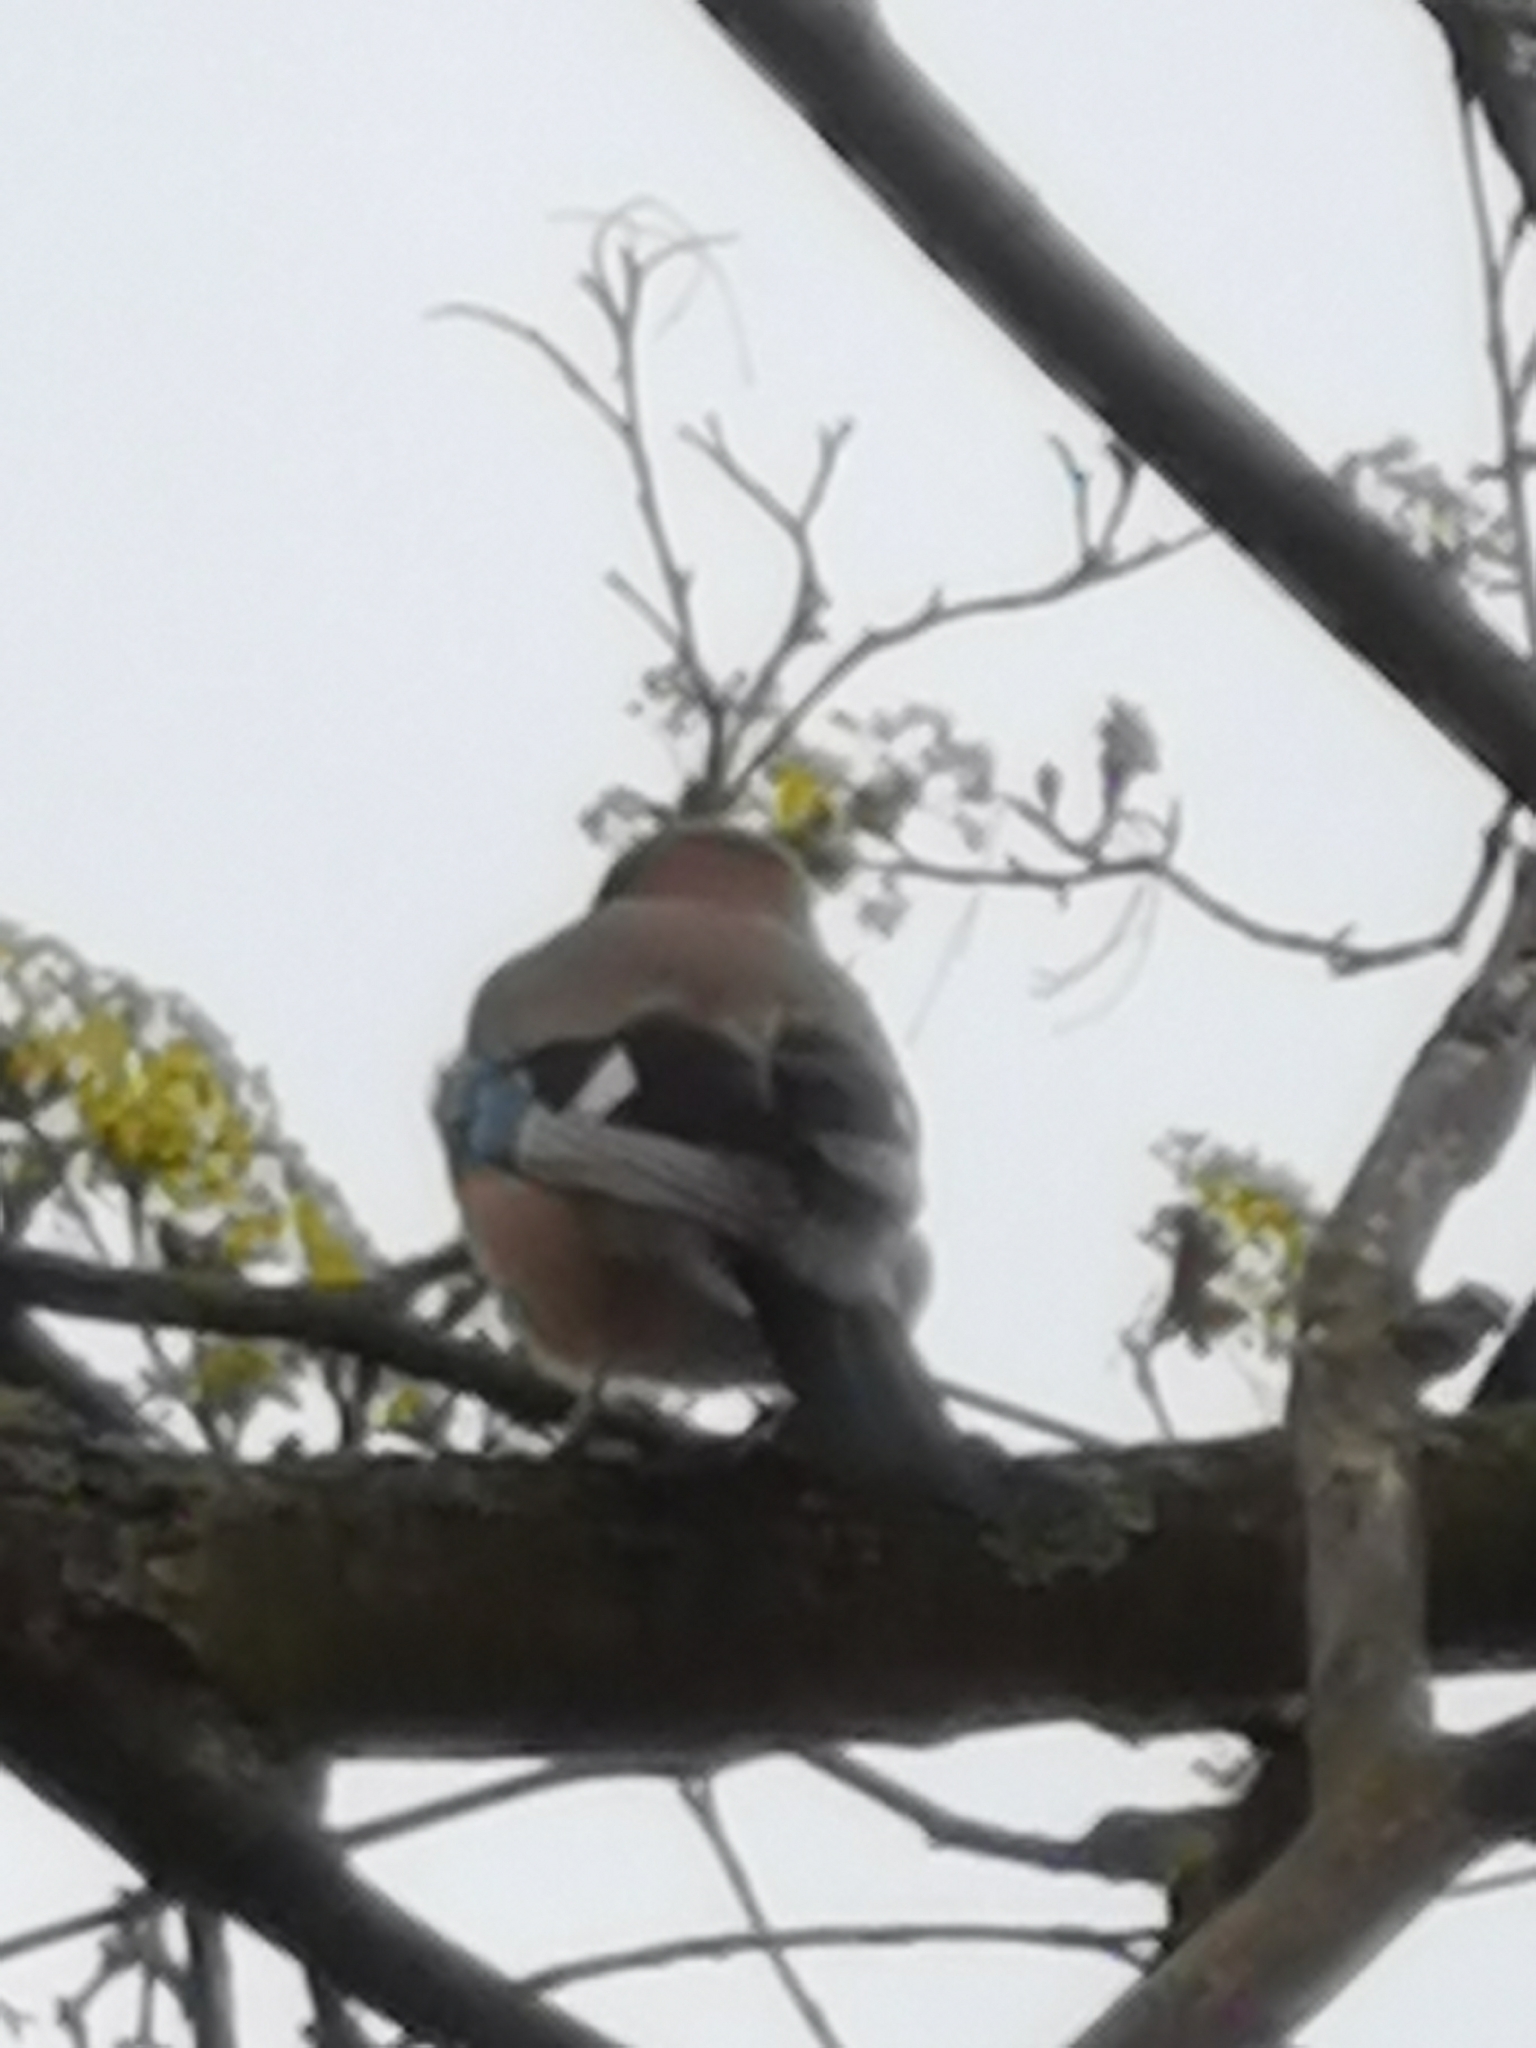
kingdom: Animalia
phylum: Chordata
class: Aves
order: Passeriformes
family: Corvidae
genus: Garrulus
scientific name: Garrulus glandarius
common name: Eurasian jay
